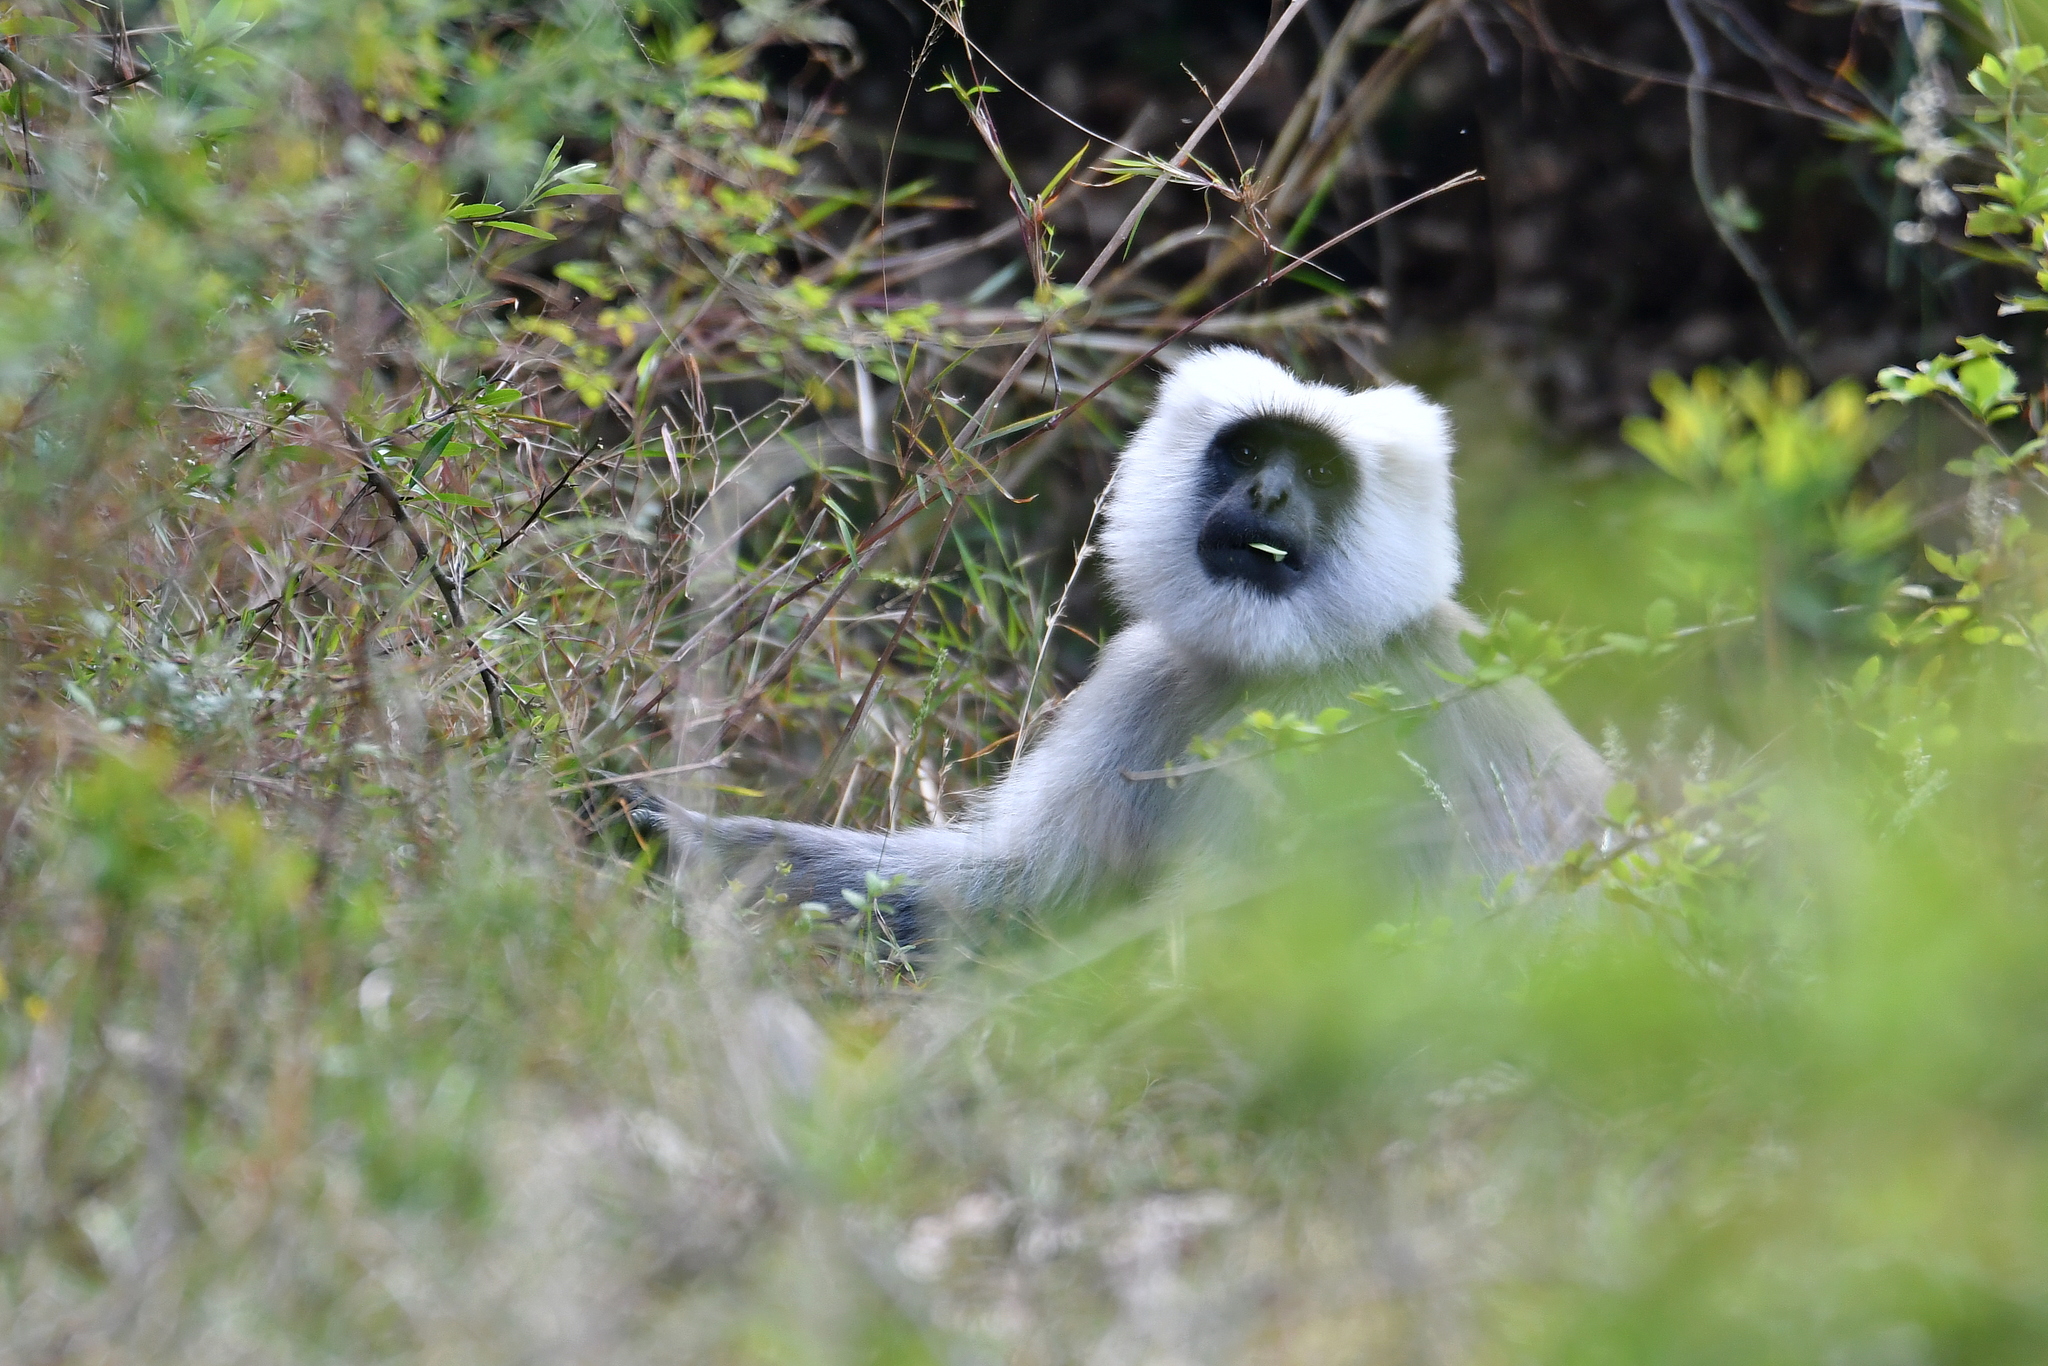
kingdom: Animalia
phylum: Chordata
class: Mammalia
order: Primates
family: Cercopithecidae
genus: Semnopithecus
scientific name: Semnopithecus schistaceus
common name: Nepal gray langur
